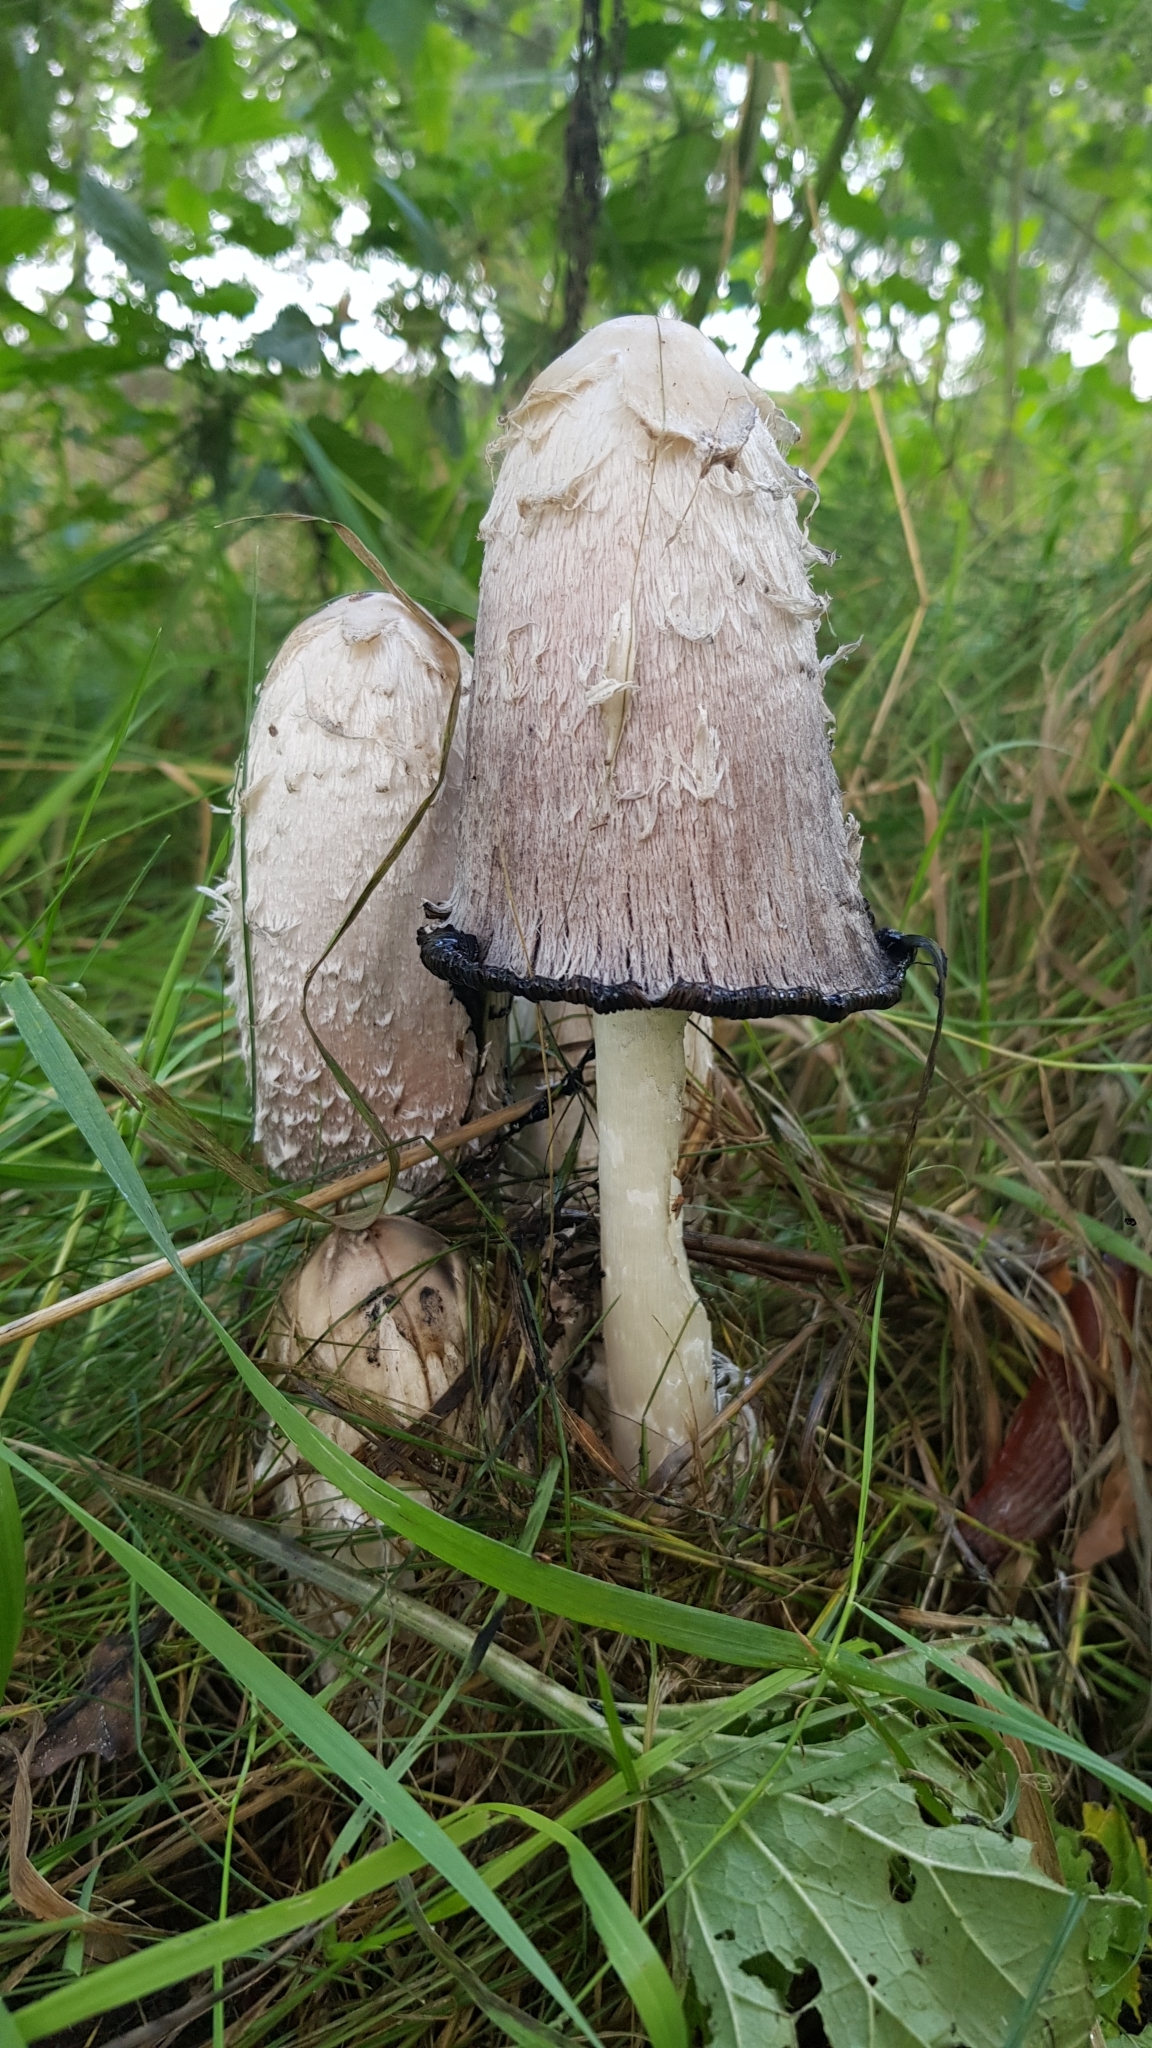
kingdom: Fungi
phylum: Basidiomycota
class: Agaricomycetes
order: Agaricales
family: Agaricaceae
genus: Coprinus
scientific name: Coprinus comatus
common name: Lawyer's wig
